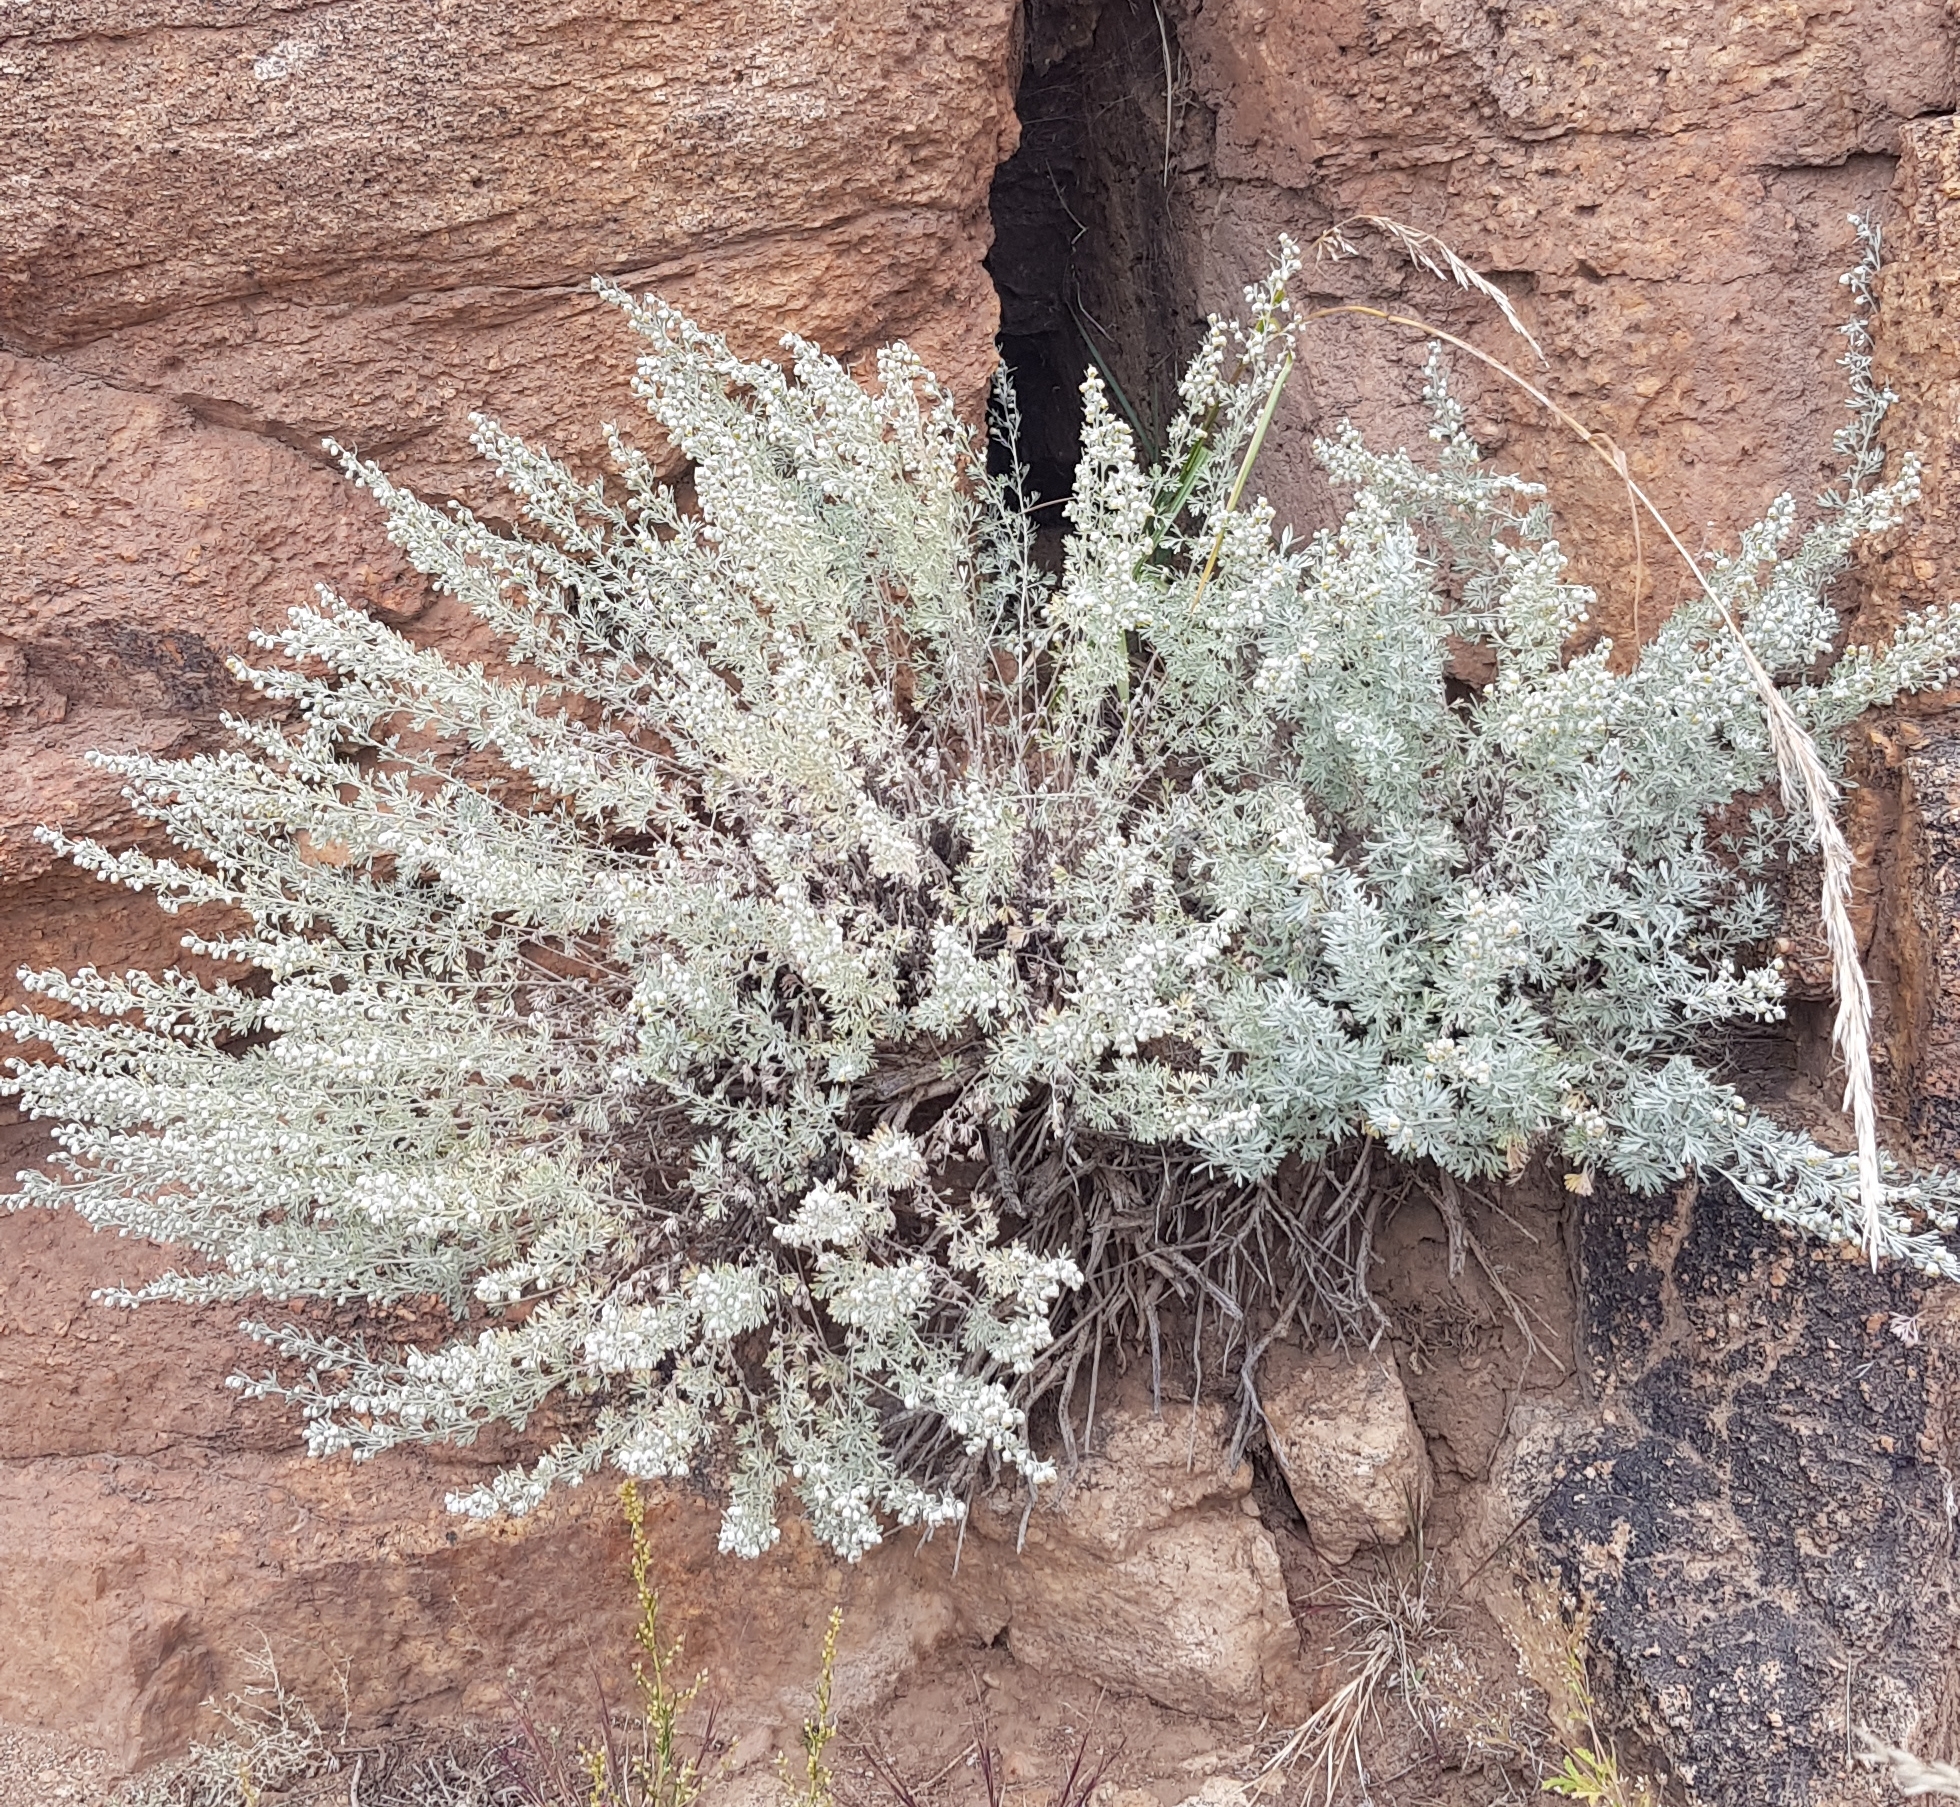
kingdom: Plantae
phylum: Tracheophyta
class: Magnoliopsida
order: Asterales
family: Asteraceae
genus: Artemisia
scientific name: Artemisia rutifolia
